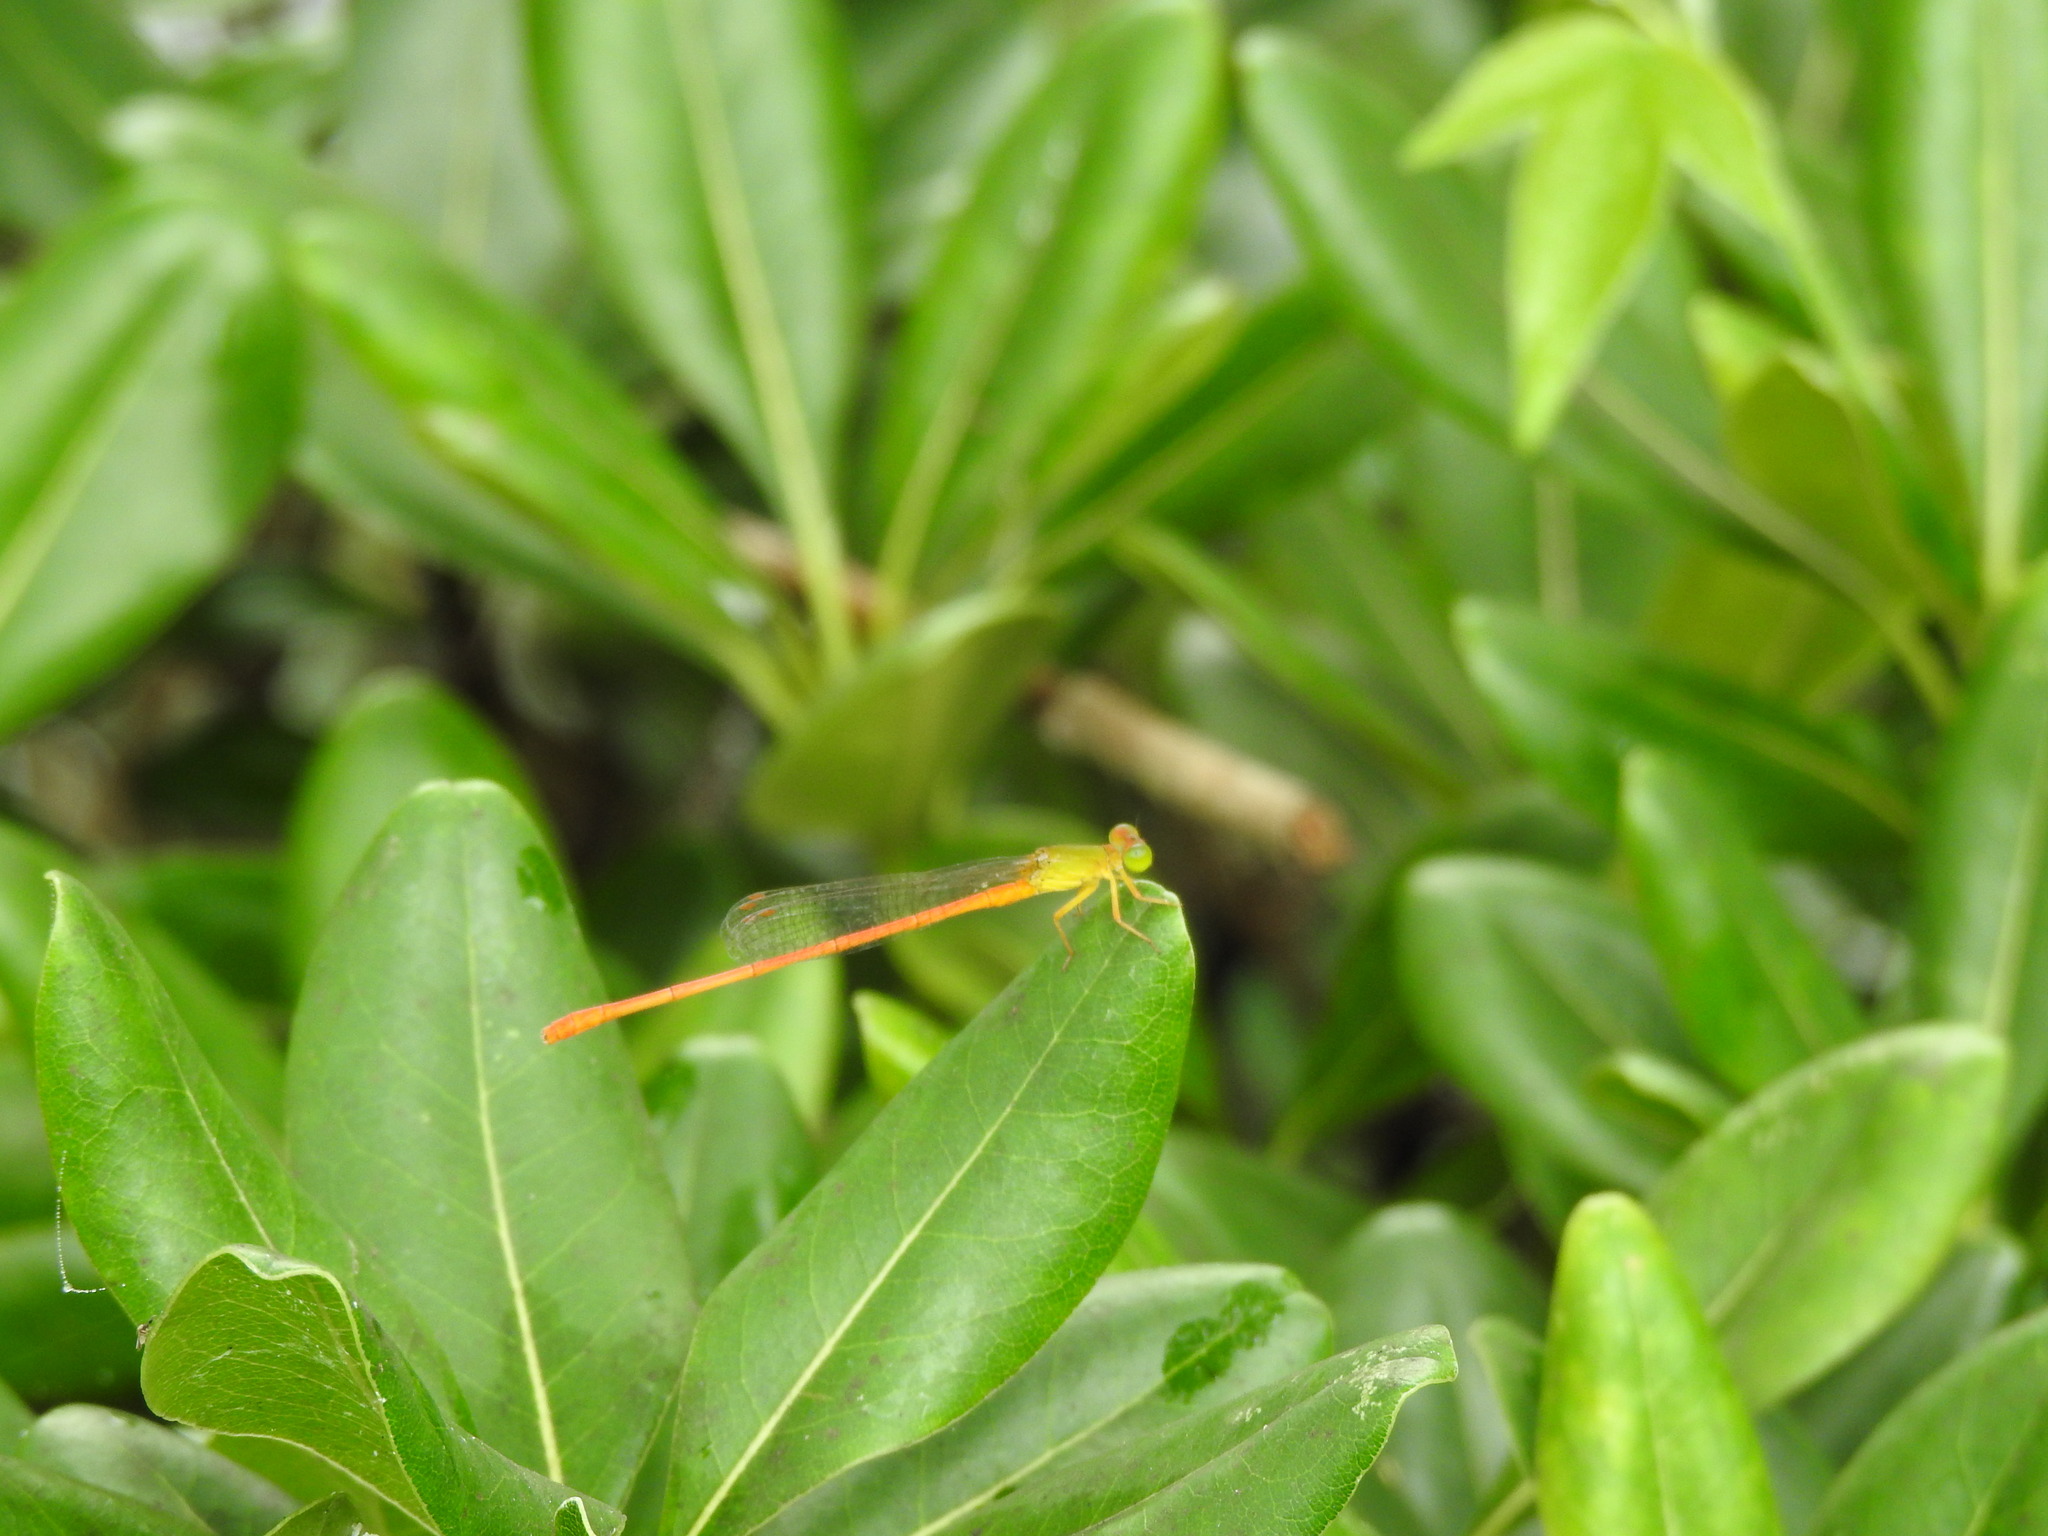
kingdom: Animalia
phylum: Arthropoda
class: Insecta
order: Odonata
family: Coenagrionidae
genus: Ceriagrion
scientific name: Ceriagrion auranticum
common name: Orange-tailed sprite
